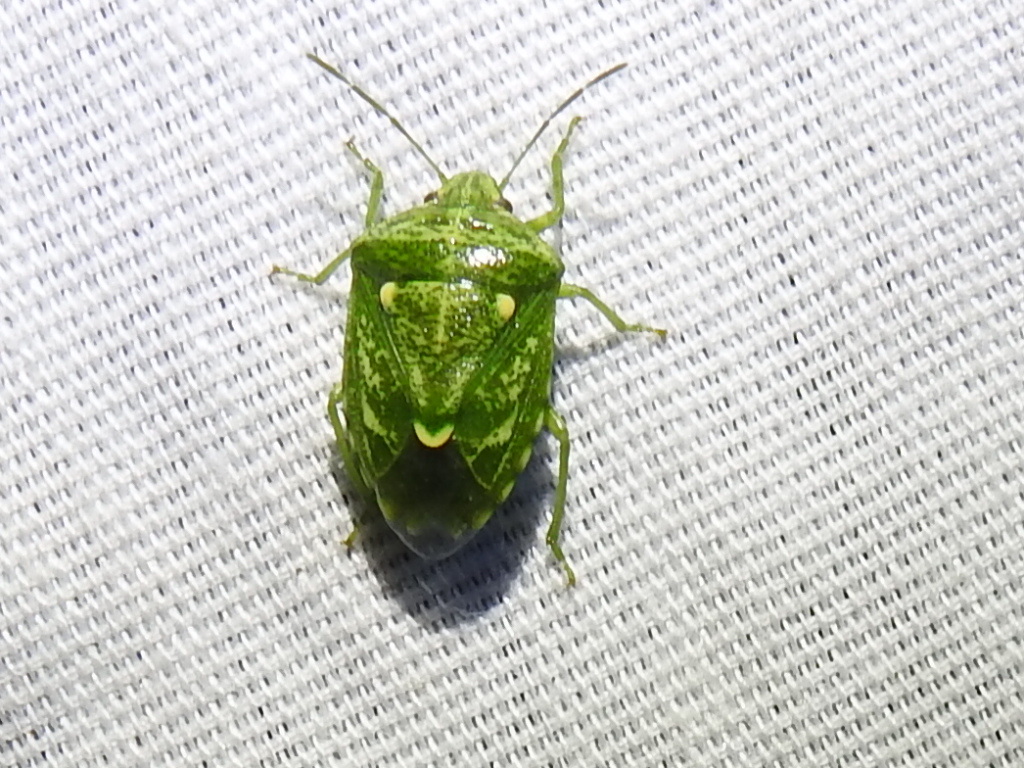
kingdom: Animalia
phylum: Arthropoda
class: Insecta
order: Hemiptera
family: Pentatomidae
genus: Banasa
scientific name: Banasa euchlora
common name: Cedar berry bug
